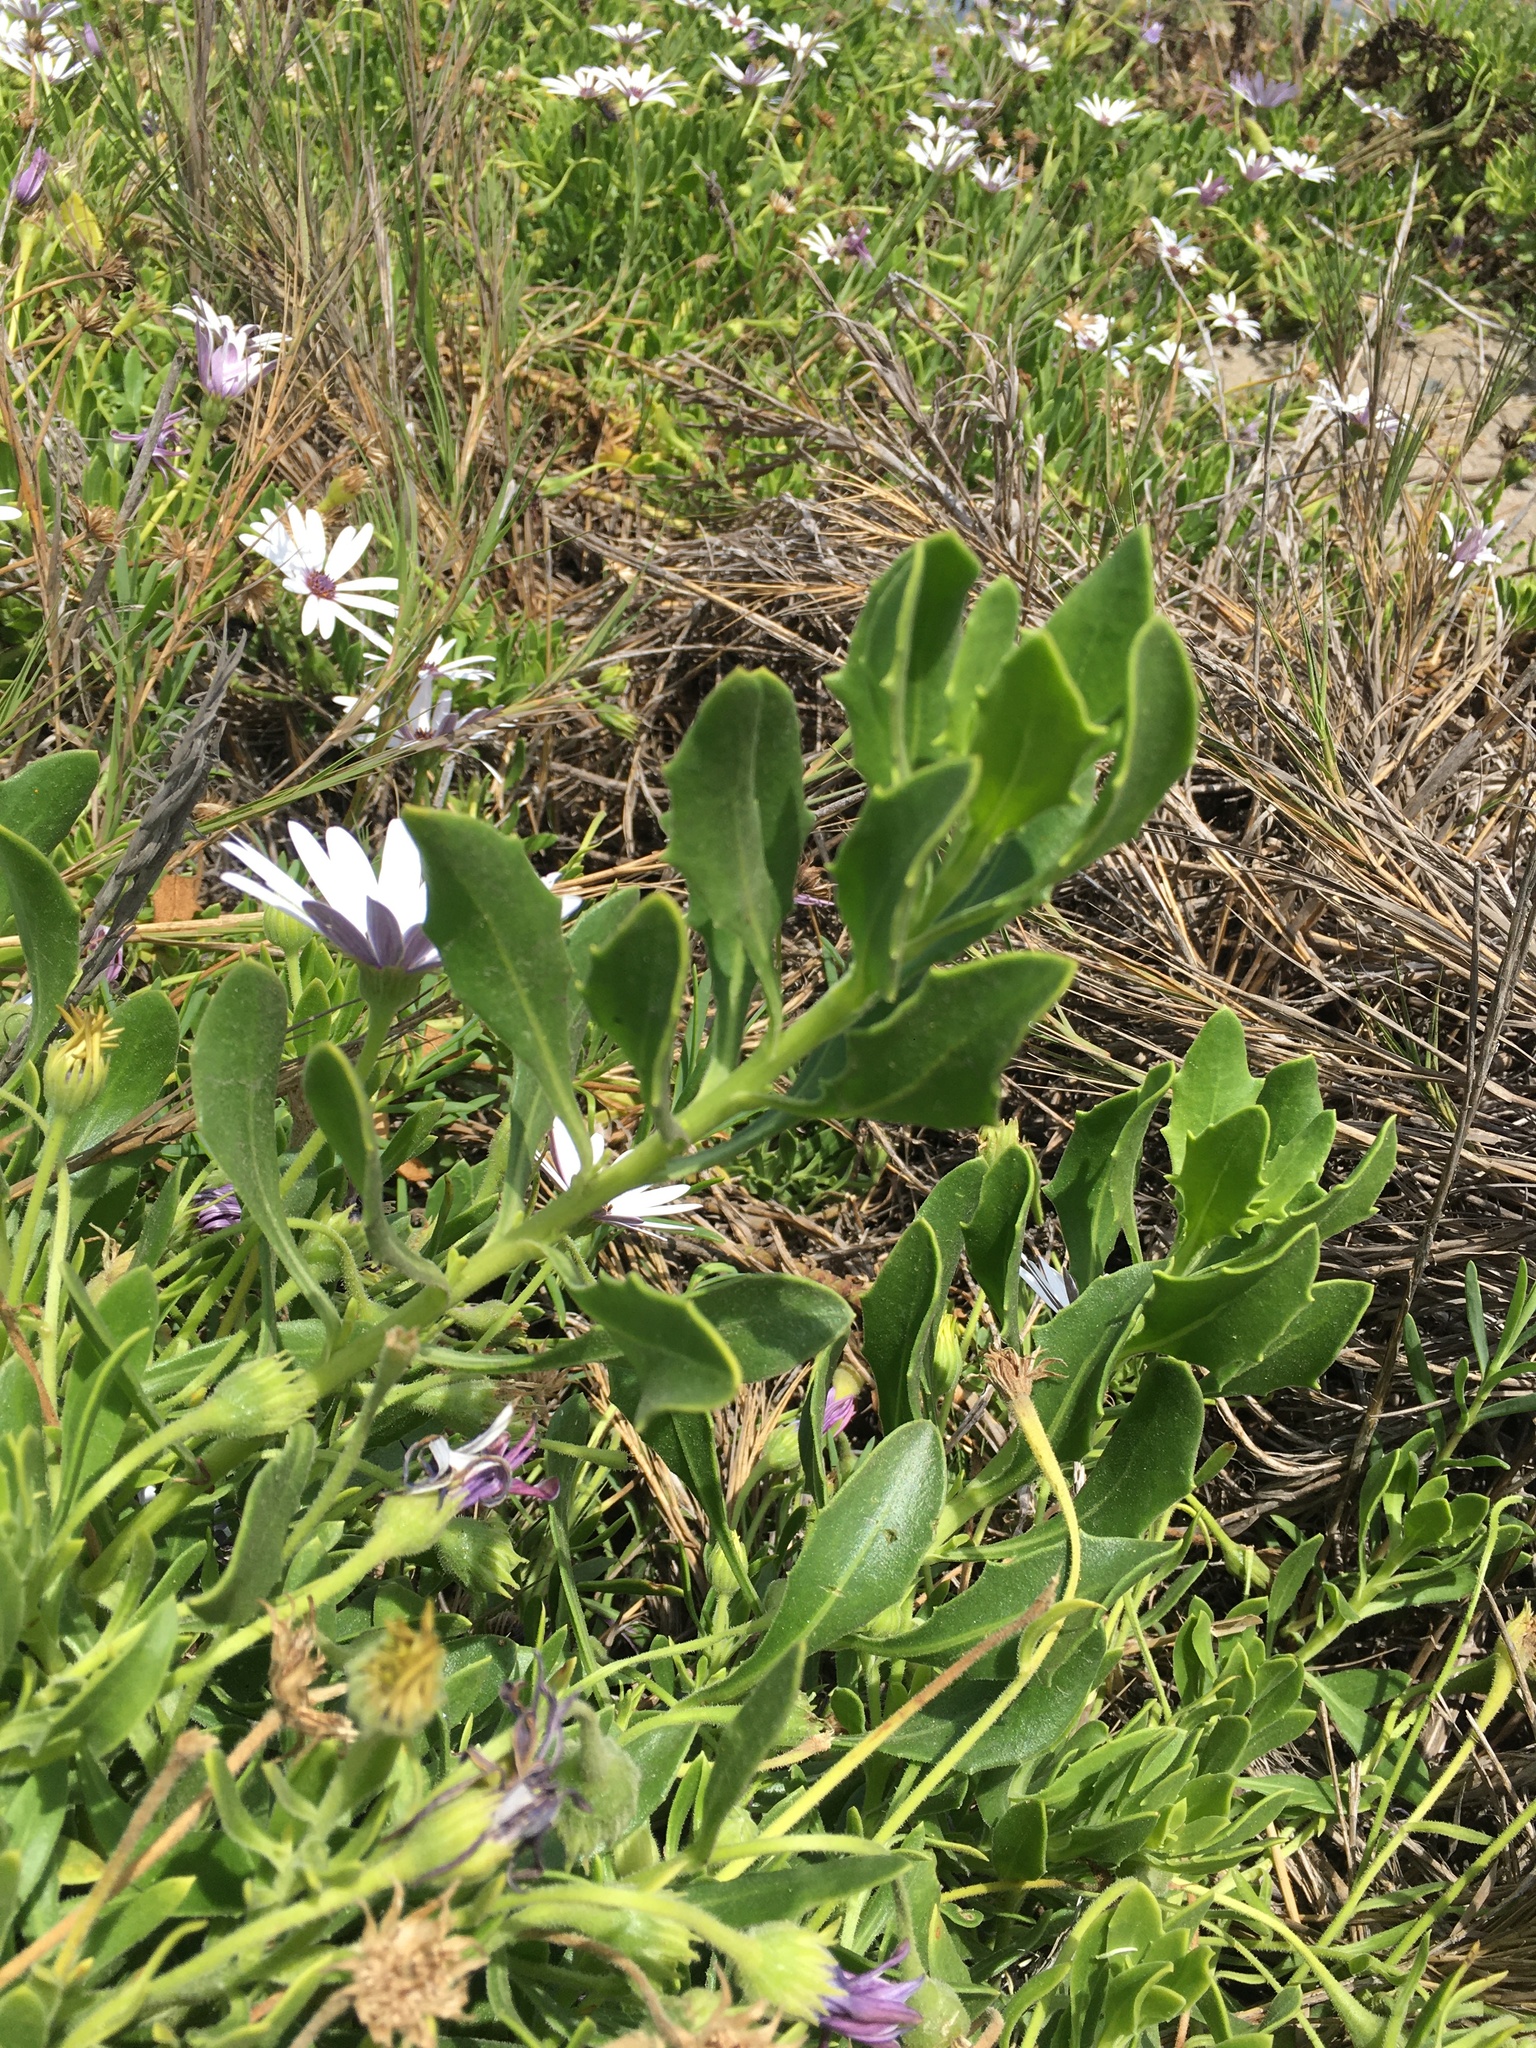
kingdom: Plantae
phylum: Tracheophyta
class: Magnoliopsida
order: Asterales
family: Asteraceae
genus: Dimorphotheca
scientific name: Dimorphotheca ecklonis
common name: Vanstaden's river daisy
